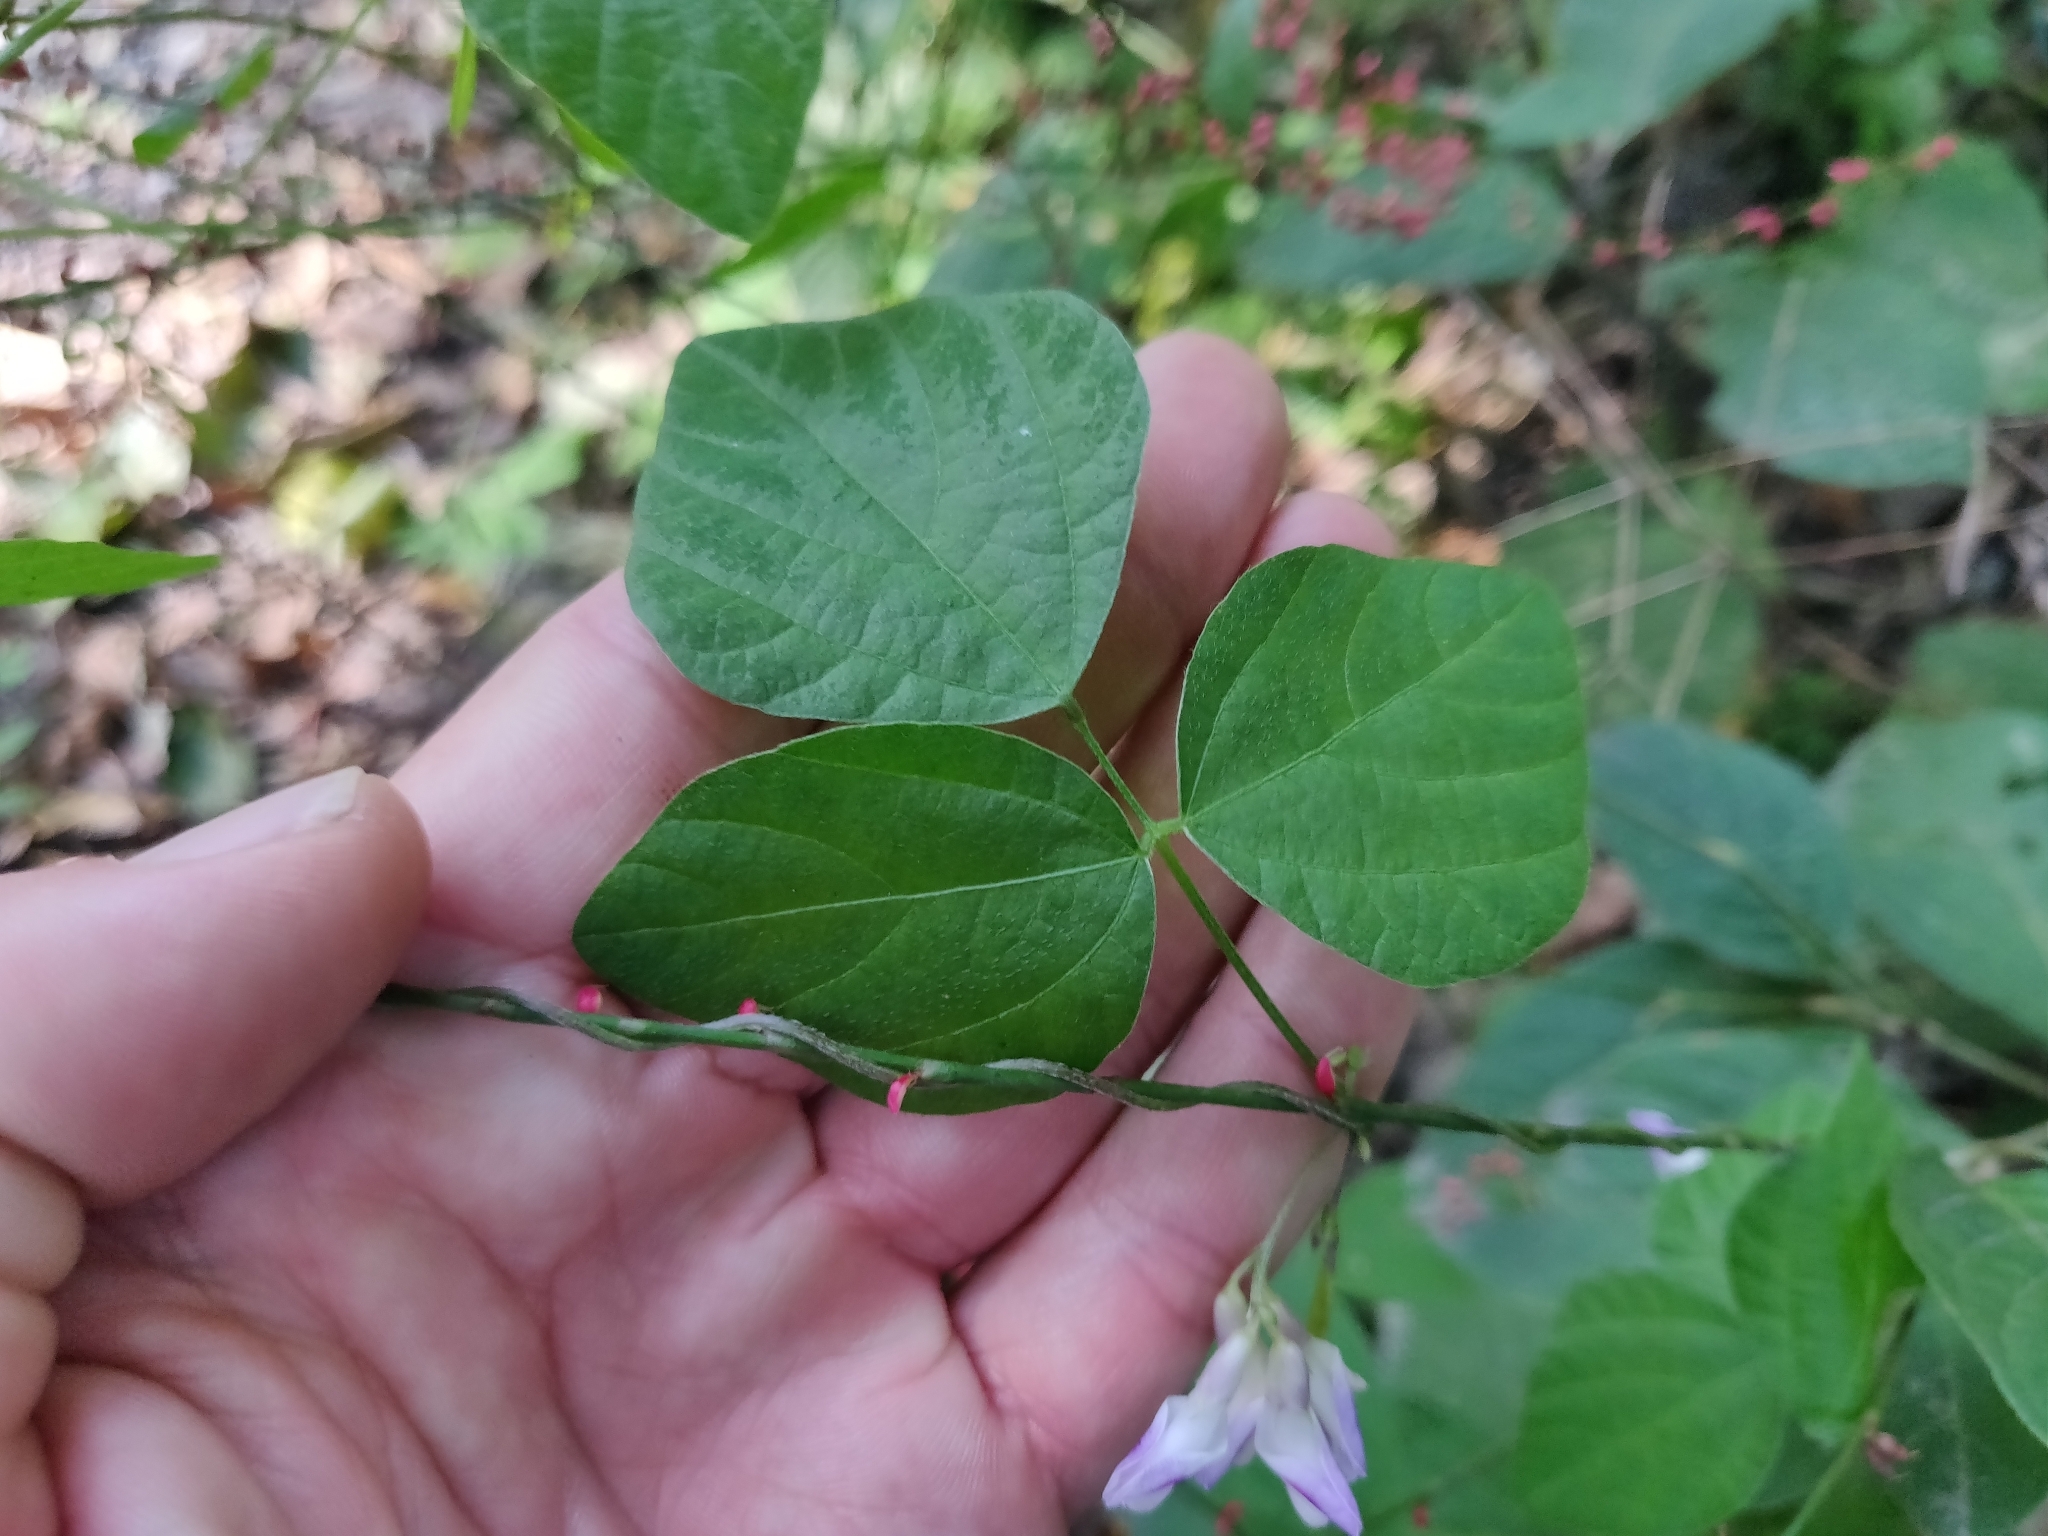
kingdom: Plantae
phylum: Tracheophyta
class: Magnoliopsida
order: Fabales
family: Fabaceae
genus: Amphicarpaea
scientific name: Amphicarpaea edgeworthii
